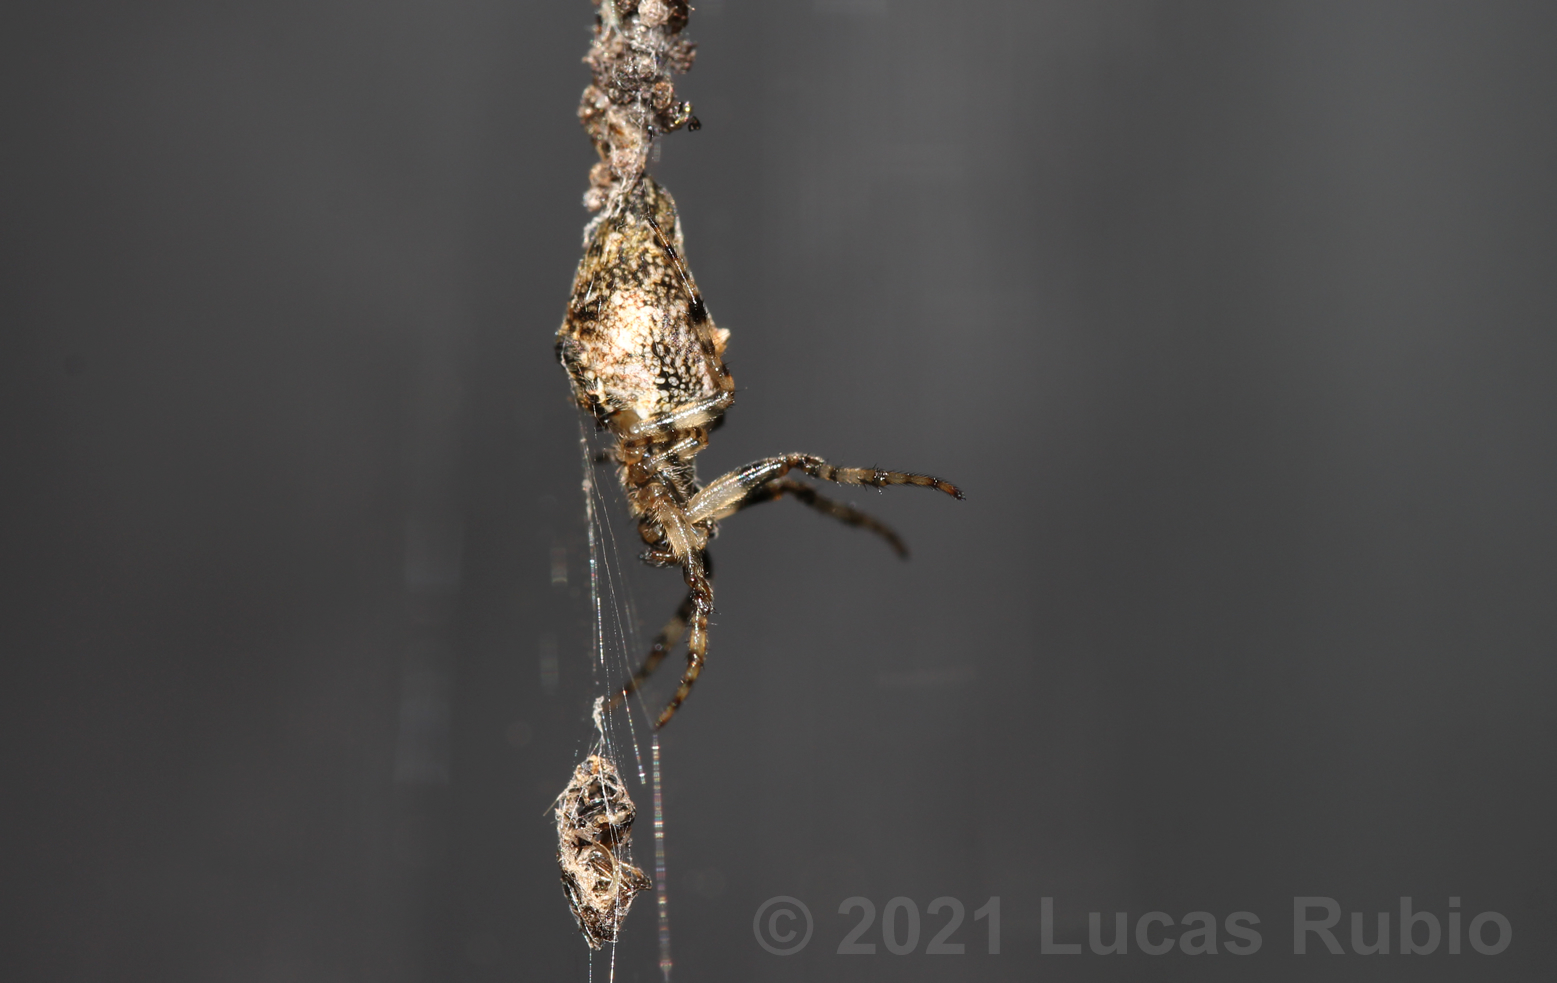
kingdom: Animalia
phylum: Arthropoda
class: Arachnida
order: Araneae
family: Araneidae
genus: Cyclosa
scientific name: Cyclosa machadinho
